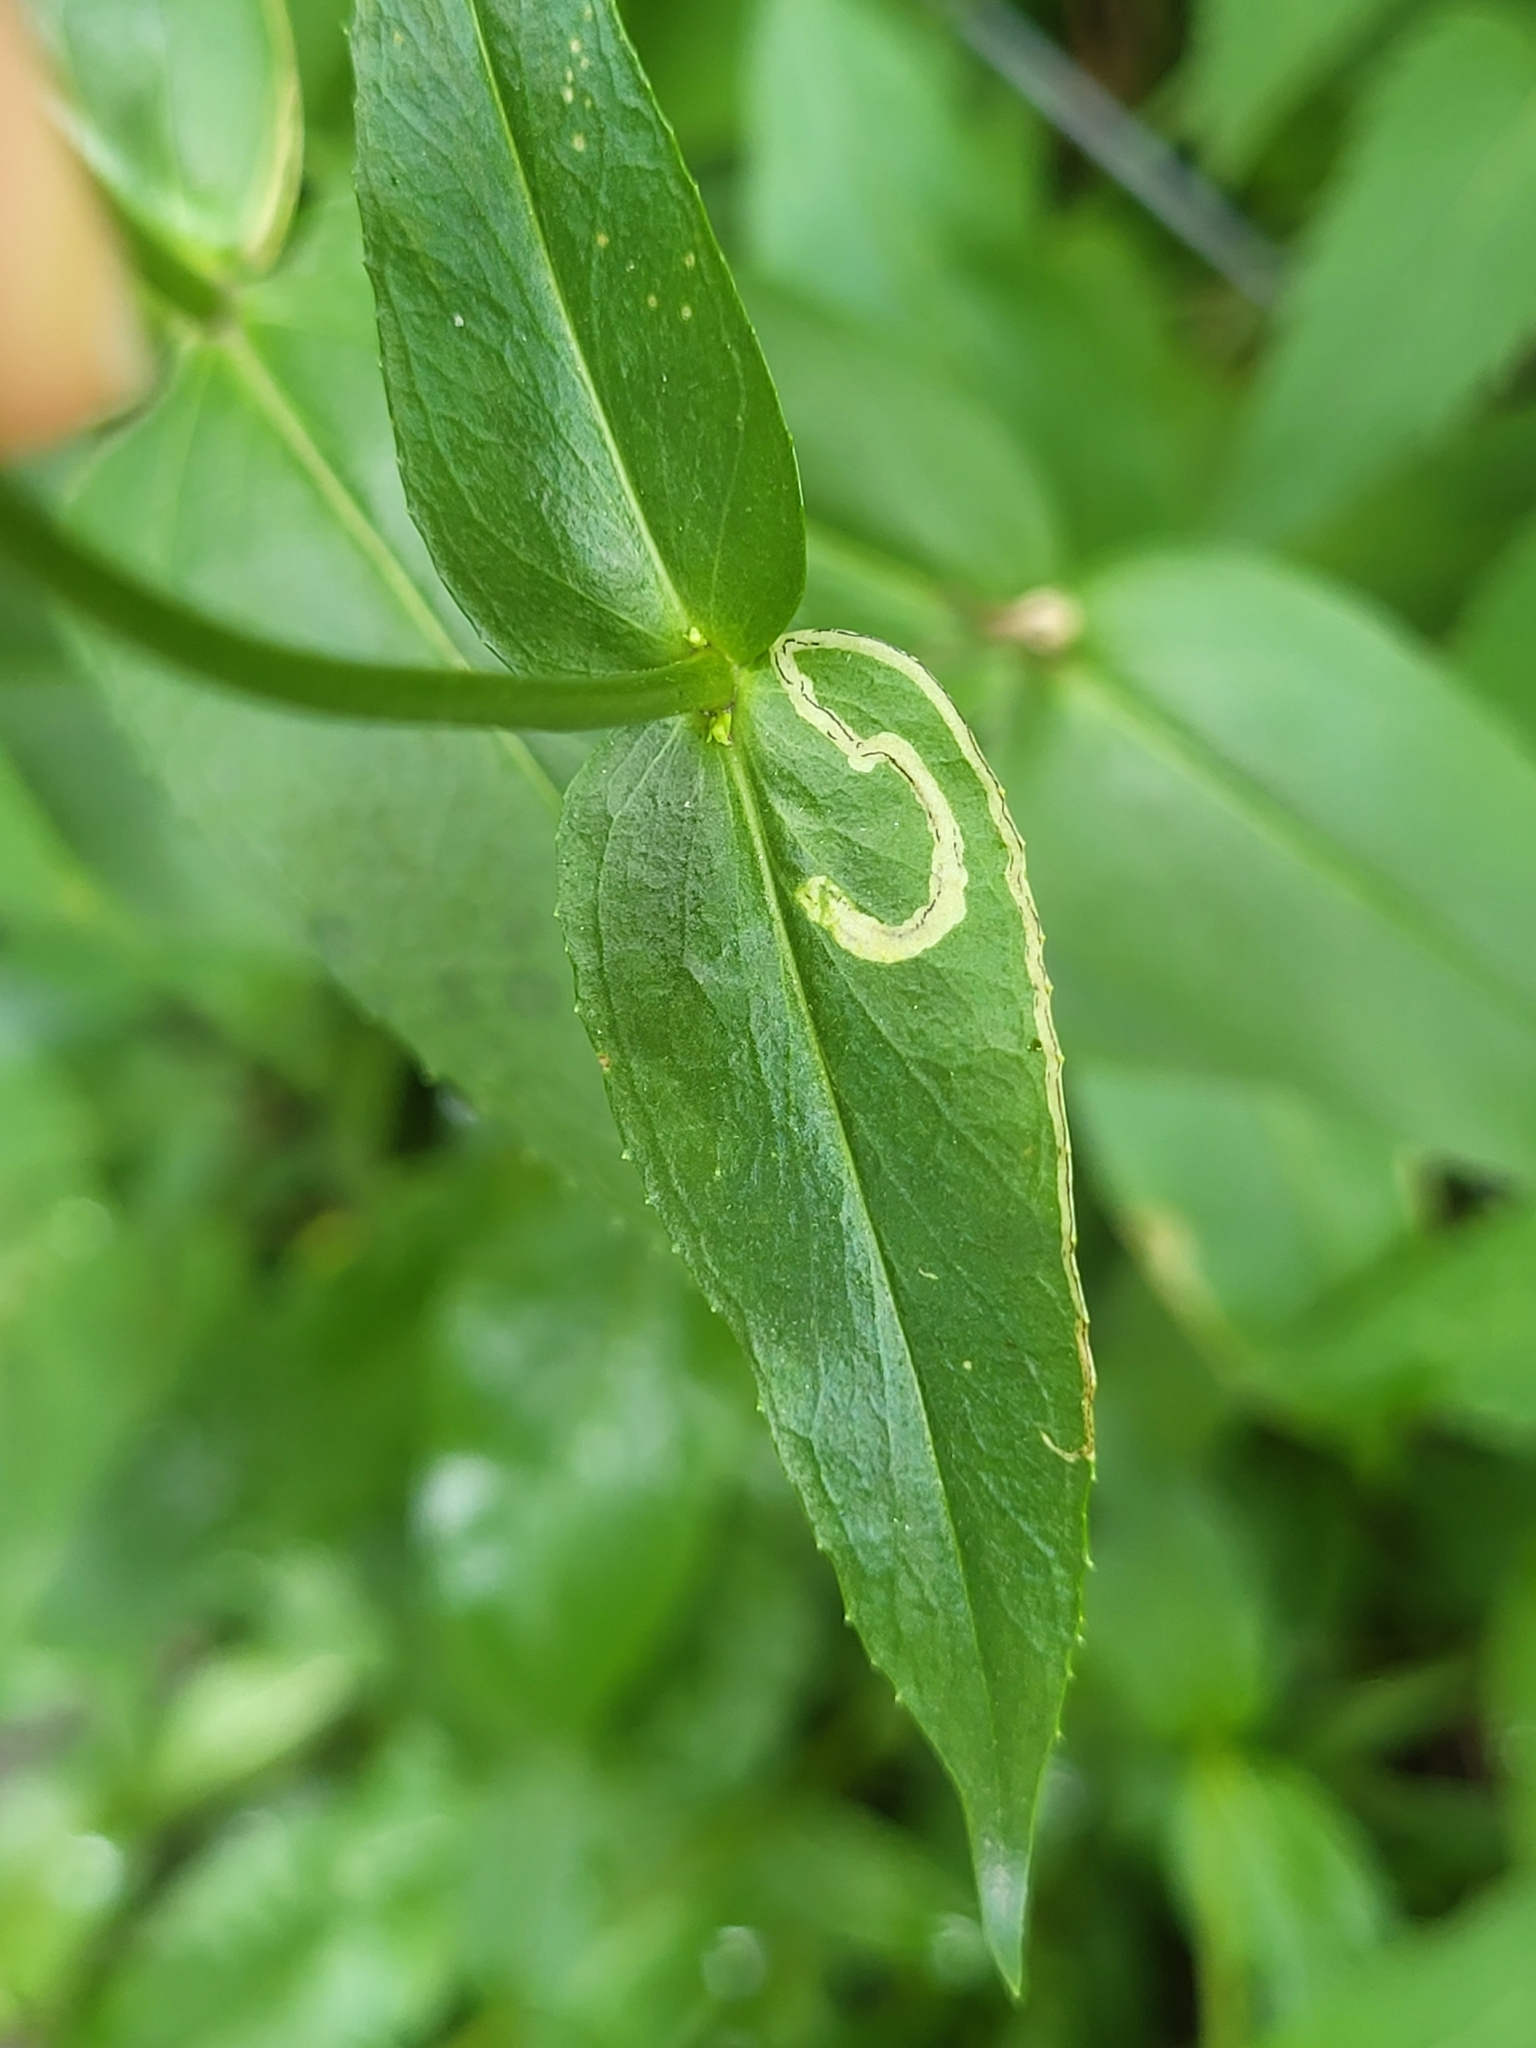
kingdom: Animalia
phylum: Arthropoda
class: Insecta
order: Diptera
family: Agromyzidae
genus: Phytomyza
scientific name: Phytomyza penstemonis
